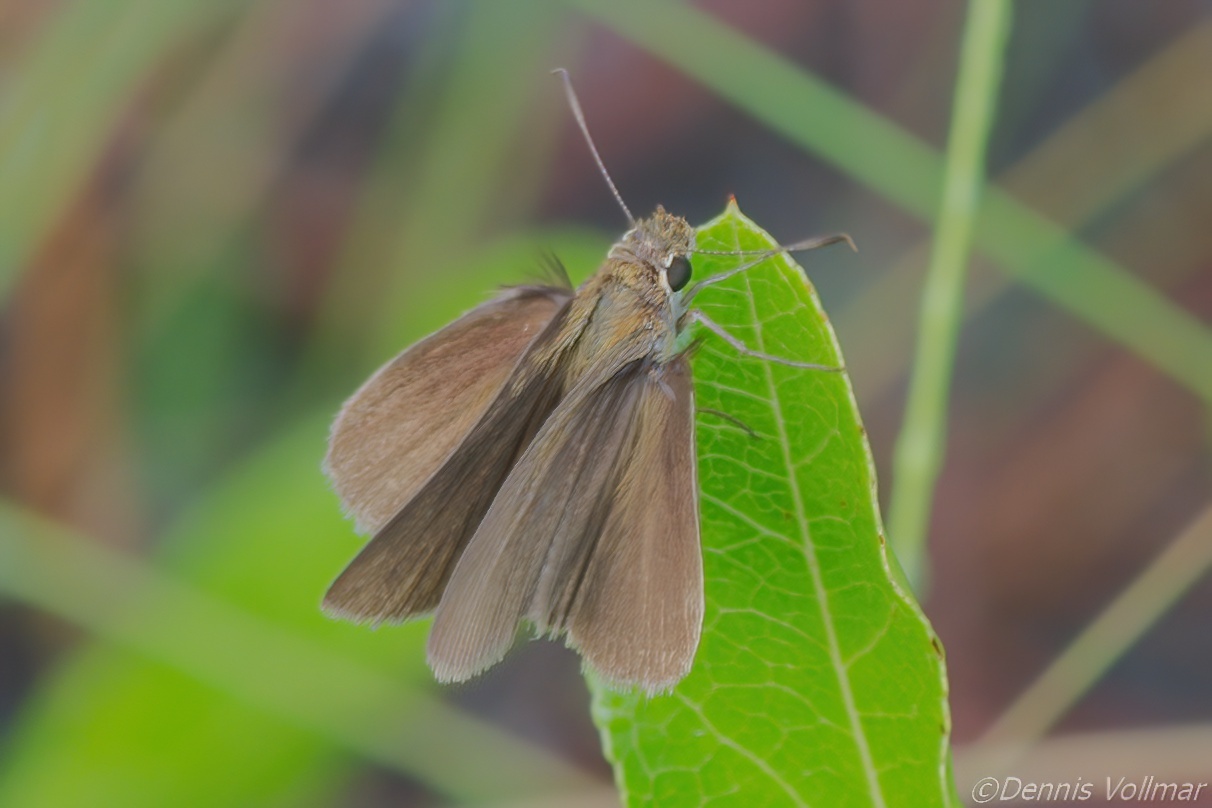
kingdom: Animalia
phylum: Arthropoda
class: Insecta
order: Lepidoptera
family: Hesperiidae
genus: Nastra
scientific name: Nastra lherminier
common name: Swarthy skipper
